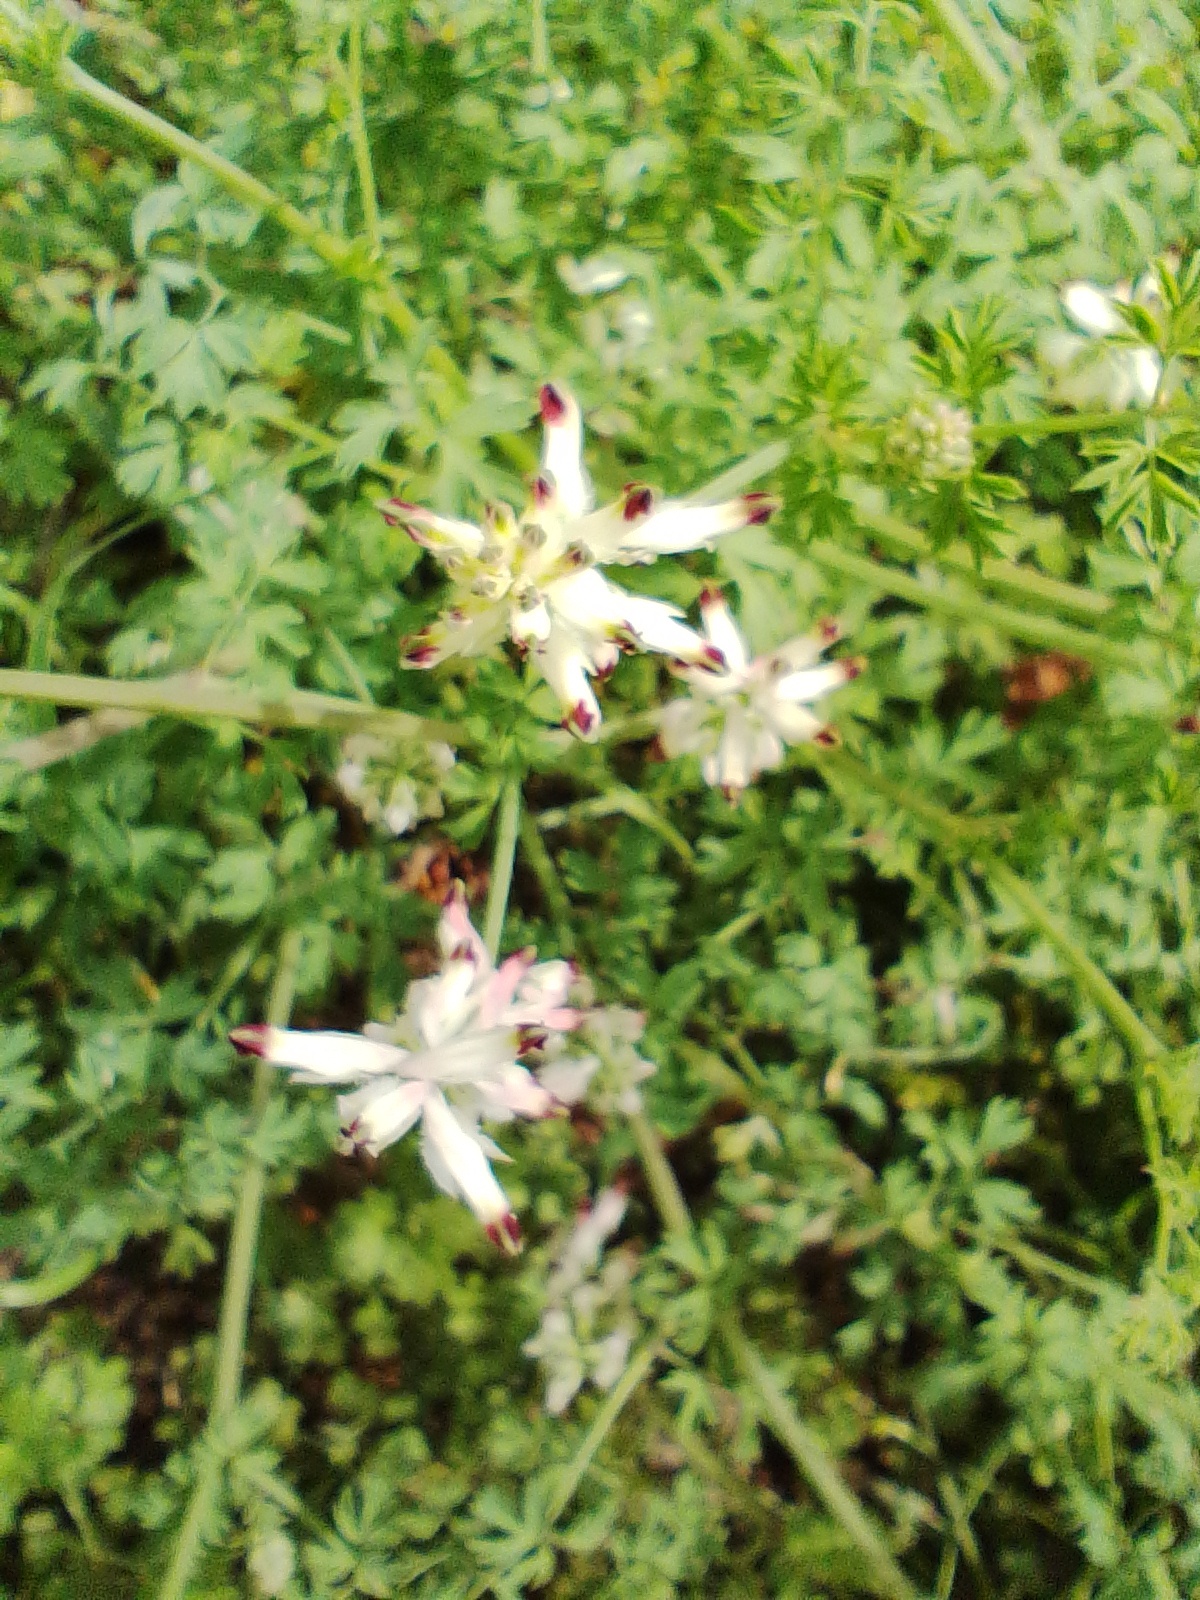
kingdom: Plantae
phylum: Tracheophyta
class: Magnoliopsida
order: Ranunculales
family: Papaveraceae
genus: Fumaria
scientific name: Fumaria capreolata
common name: White ramping-fumitory
